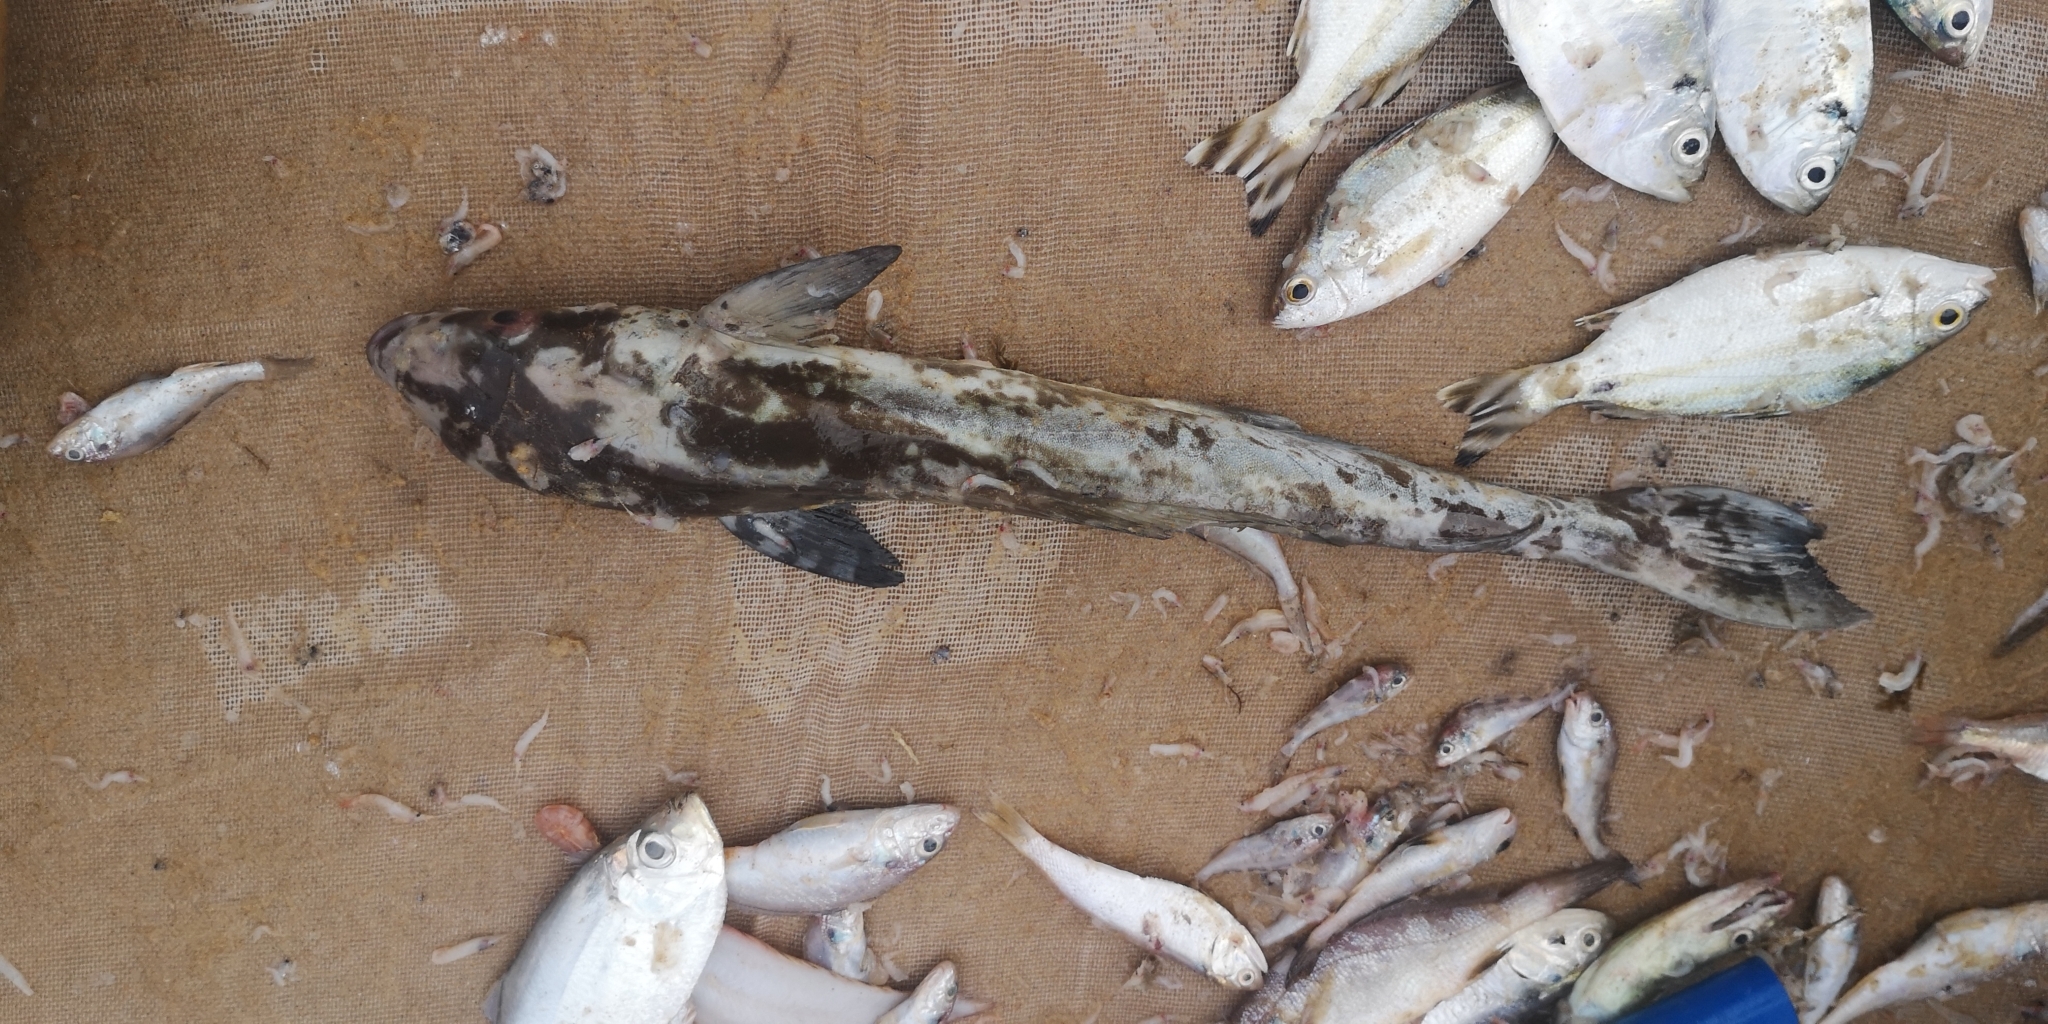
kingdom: Animalia
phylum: Chordata
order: Perciformes
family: Rachycentridae
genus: Rachycentron
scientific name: Rachycentron canadum
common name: Cobia
